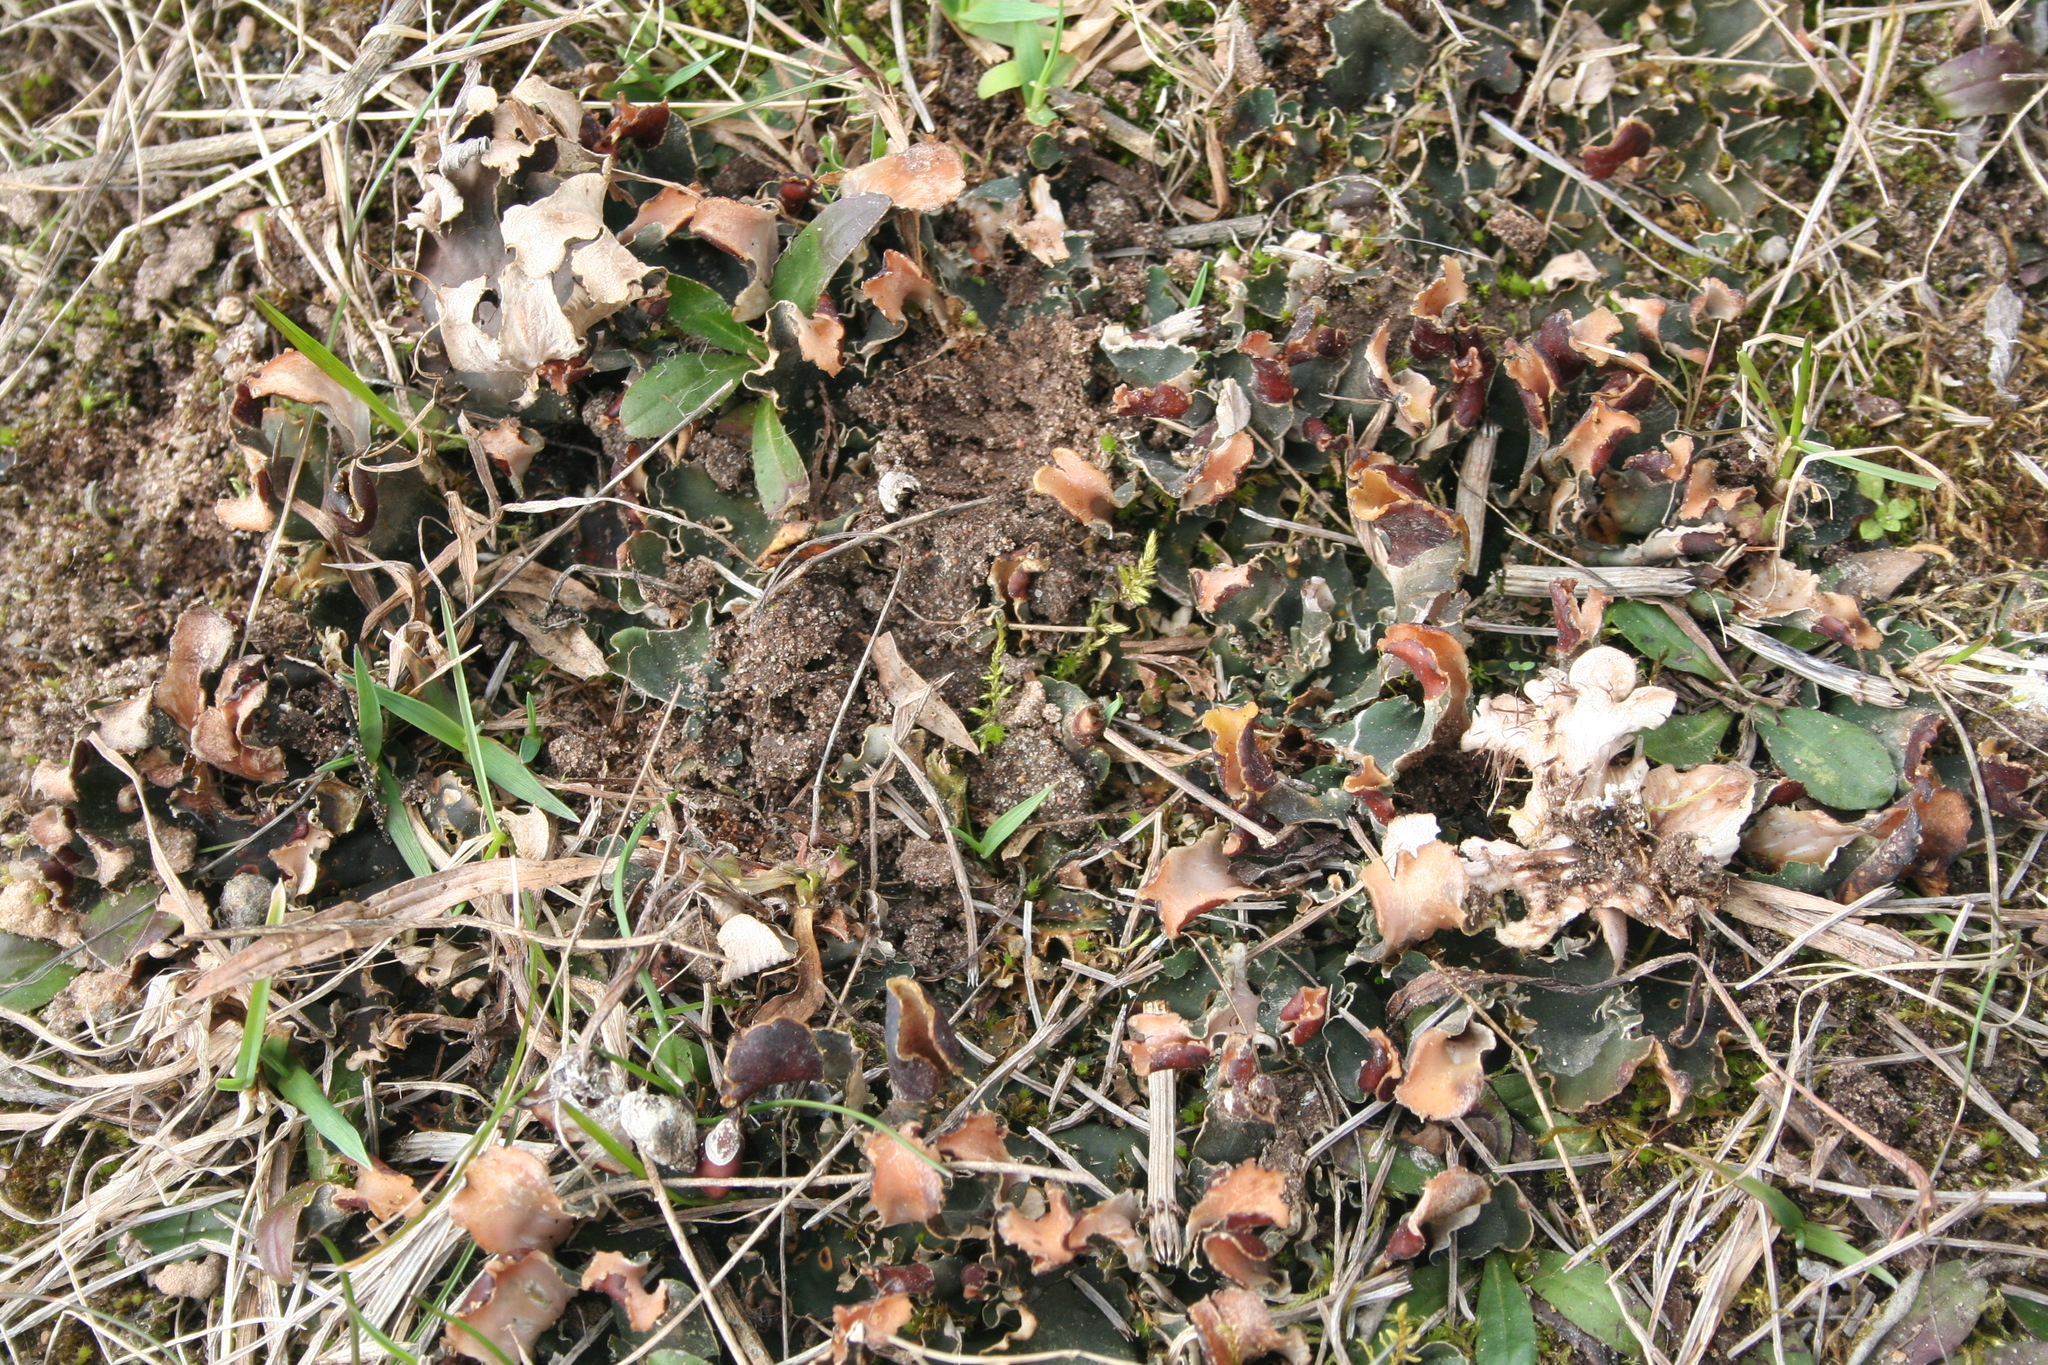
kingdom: Fungi
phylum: Ascomycota
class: Lecanoromycetes
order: Peltigerales
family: Peltigeraceae
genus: Peltigera
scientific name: Peltigera rufescens
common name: Field dog lichen
